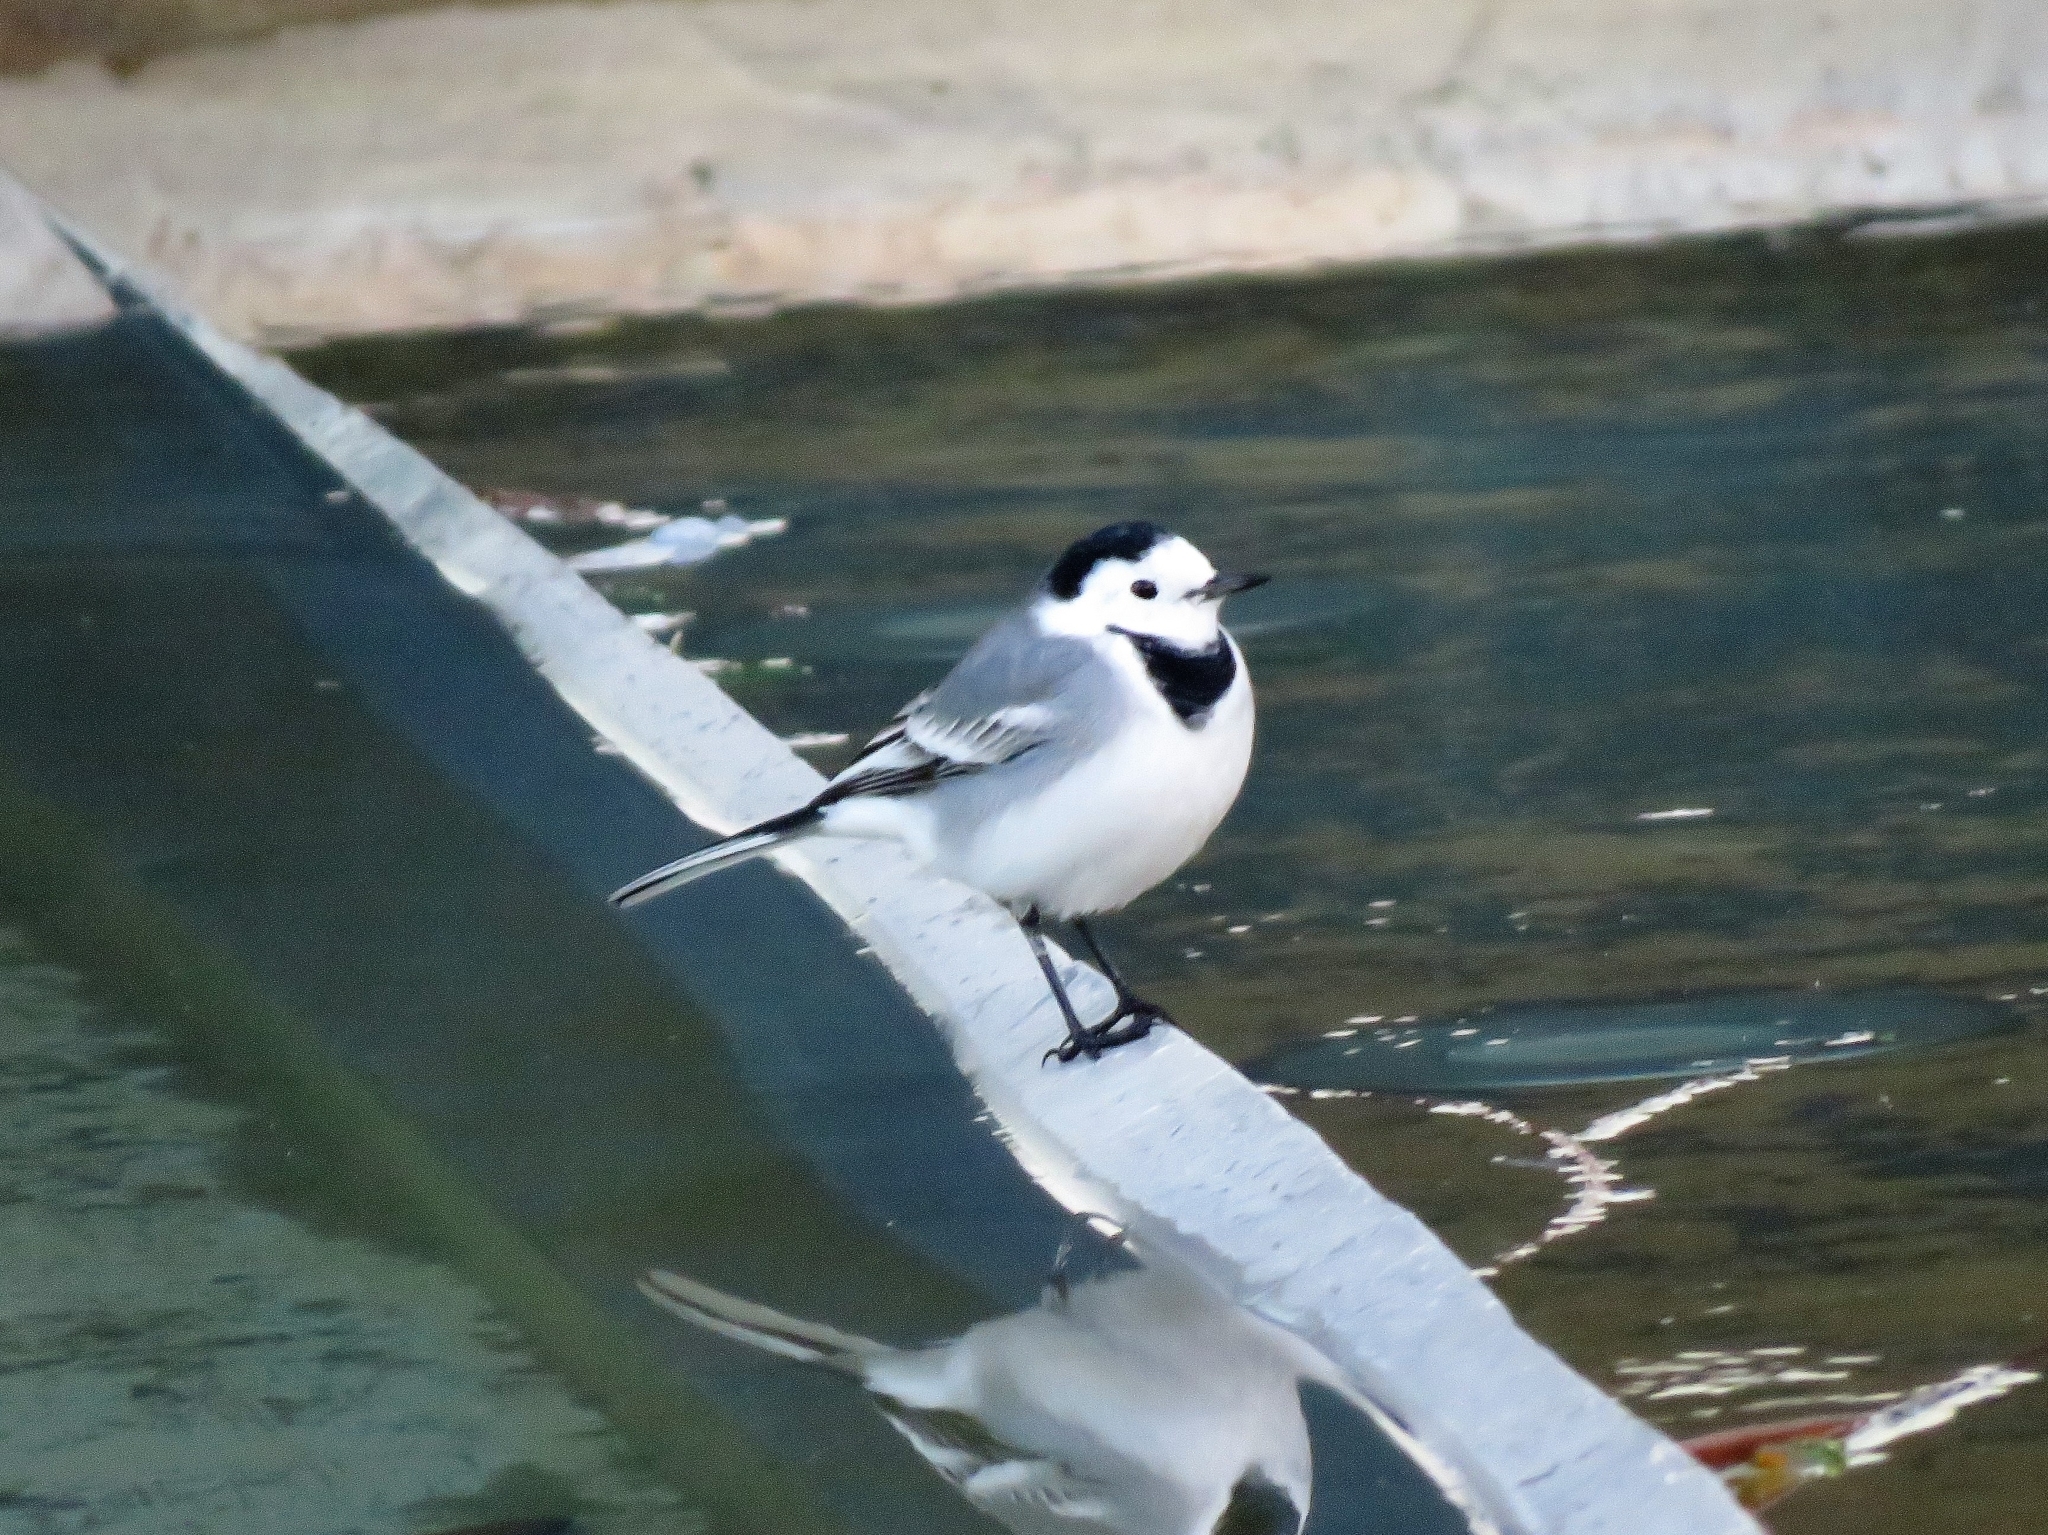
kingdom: Animalia
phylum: Chordata
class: Aves
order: Passeriformes
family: Motacillidae
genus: Motacilla
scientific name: Motacilla alba
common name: White wagtail
